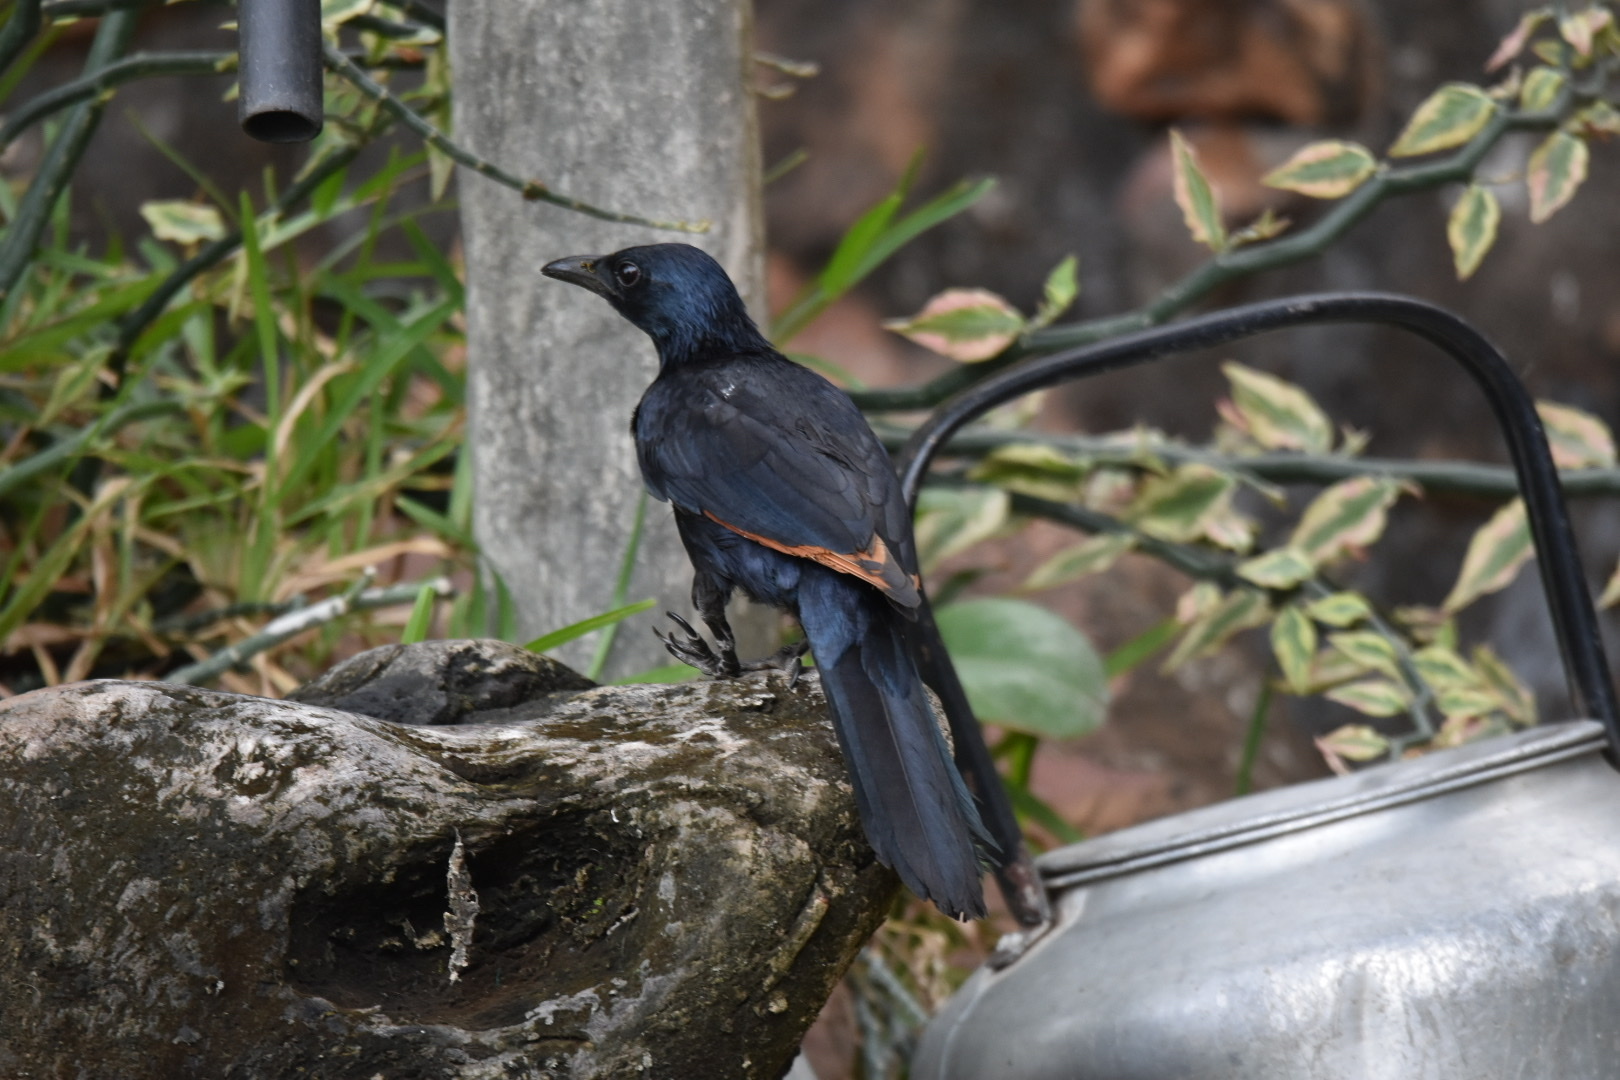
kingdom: Animalia
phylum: Chordata
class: Aves
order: Passeriformes
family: Sturnidae
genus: Onychognathus
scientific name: Onychognathus morio
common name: Red-winged starling
